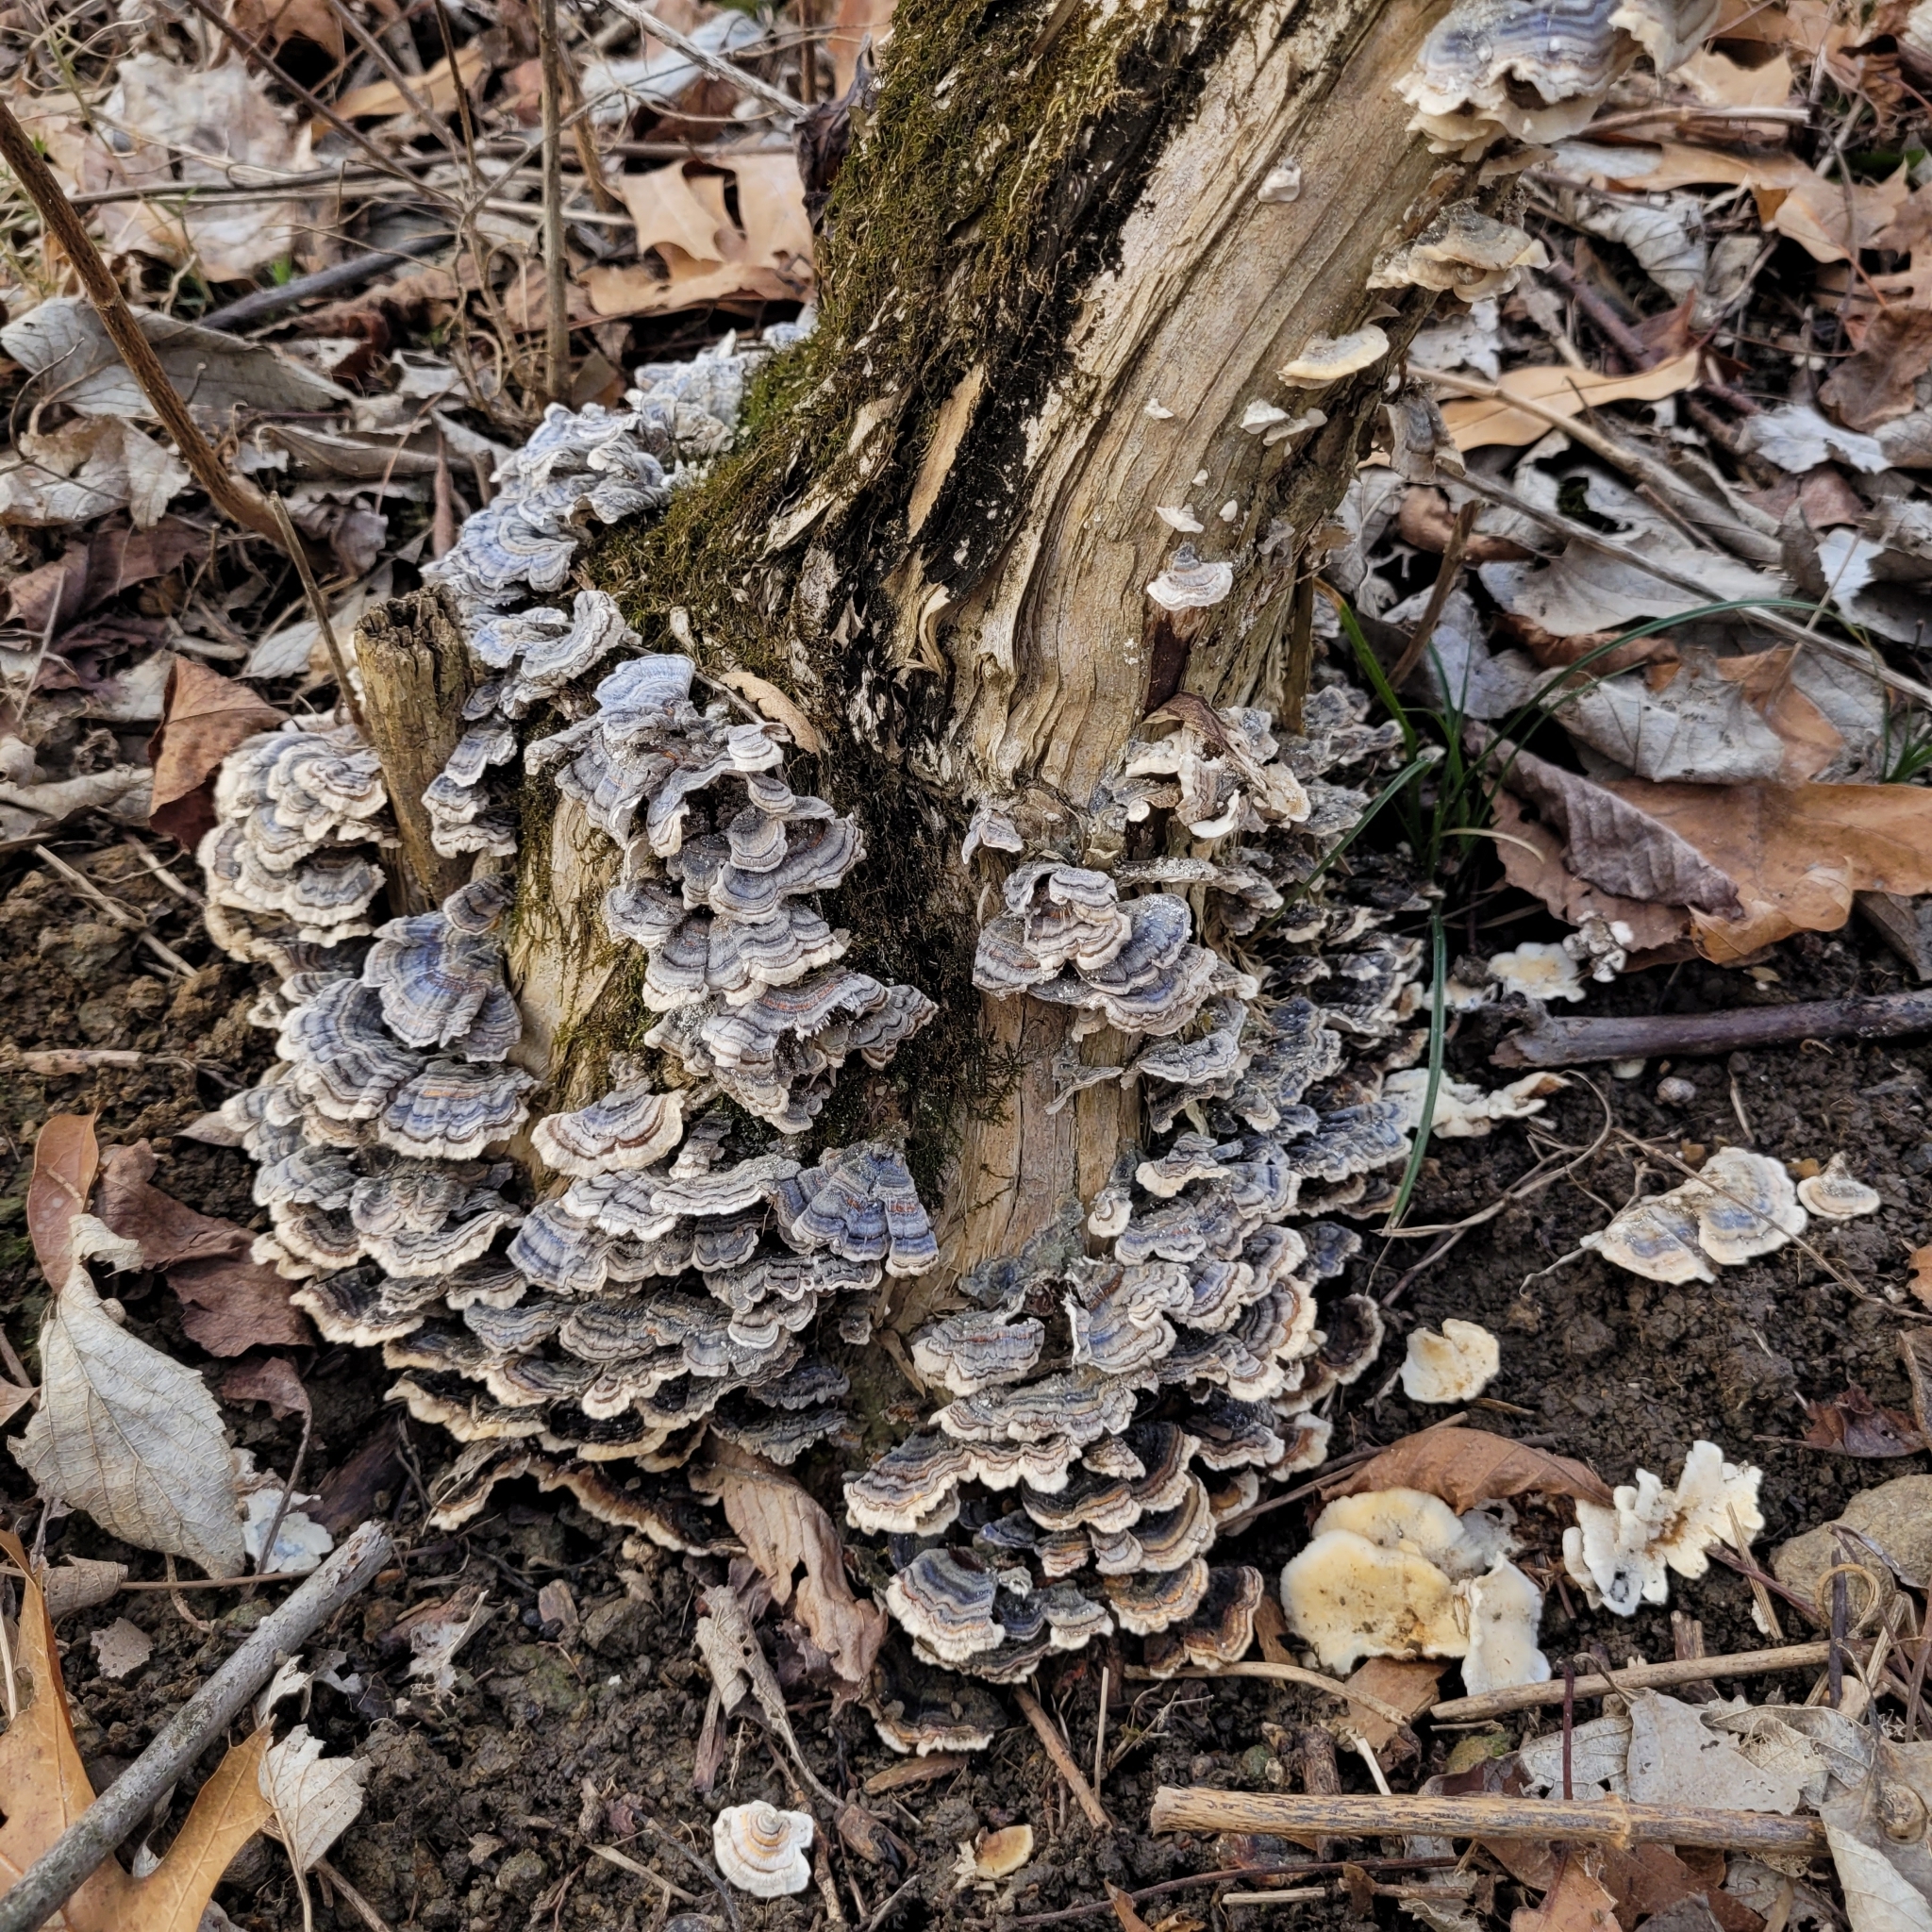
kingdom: Fungi
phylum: Basidiomycota
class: Agaricomycetes
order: Polyporales
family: Polyporaceae
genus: Trametes
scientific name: Trametes versicolor
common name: Turkeytail
